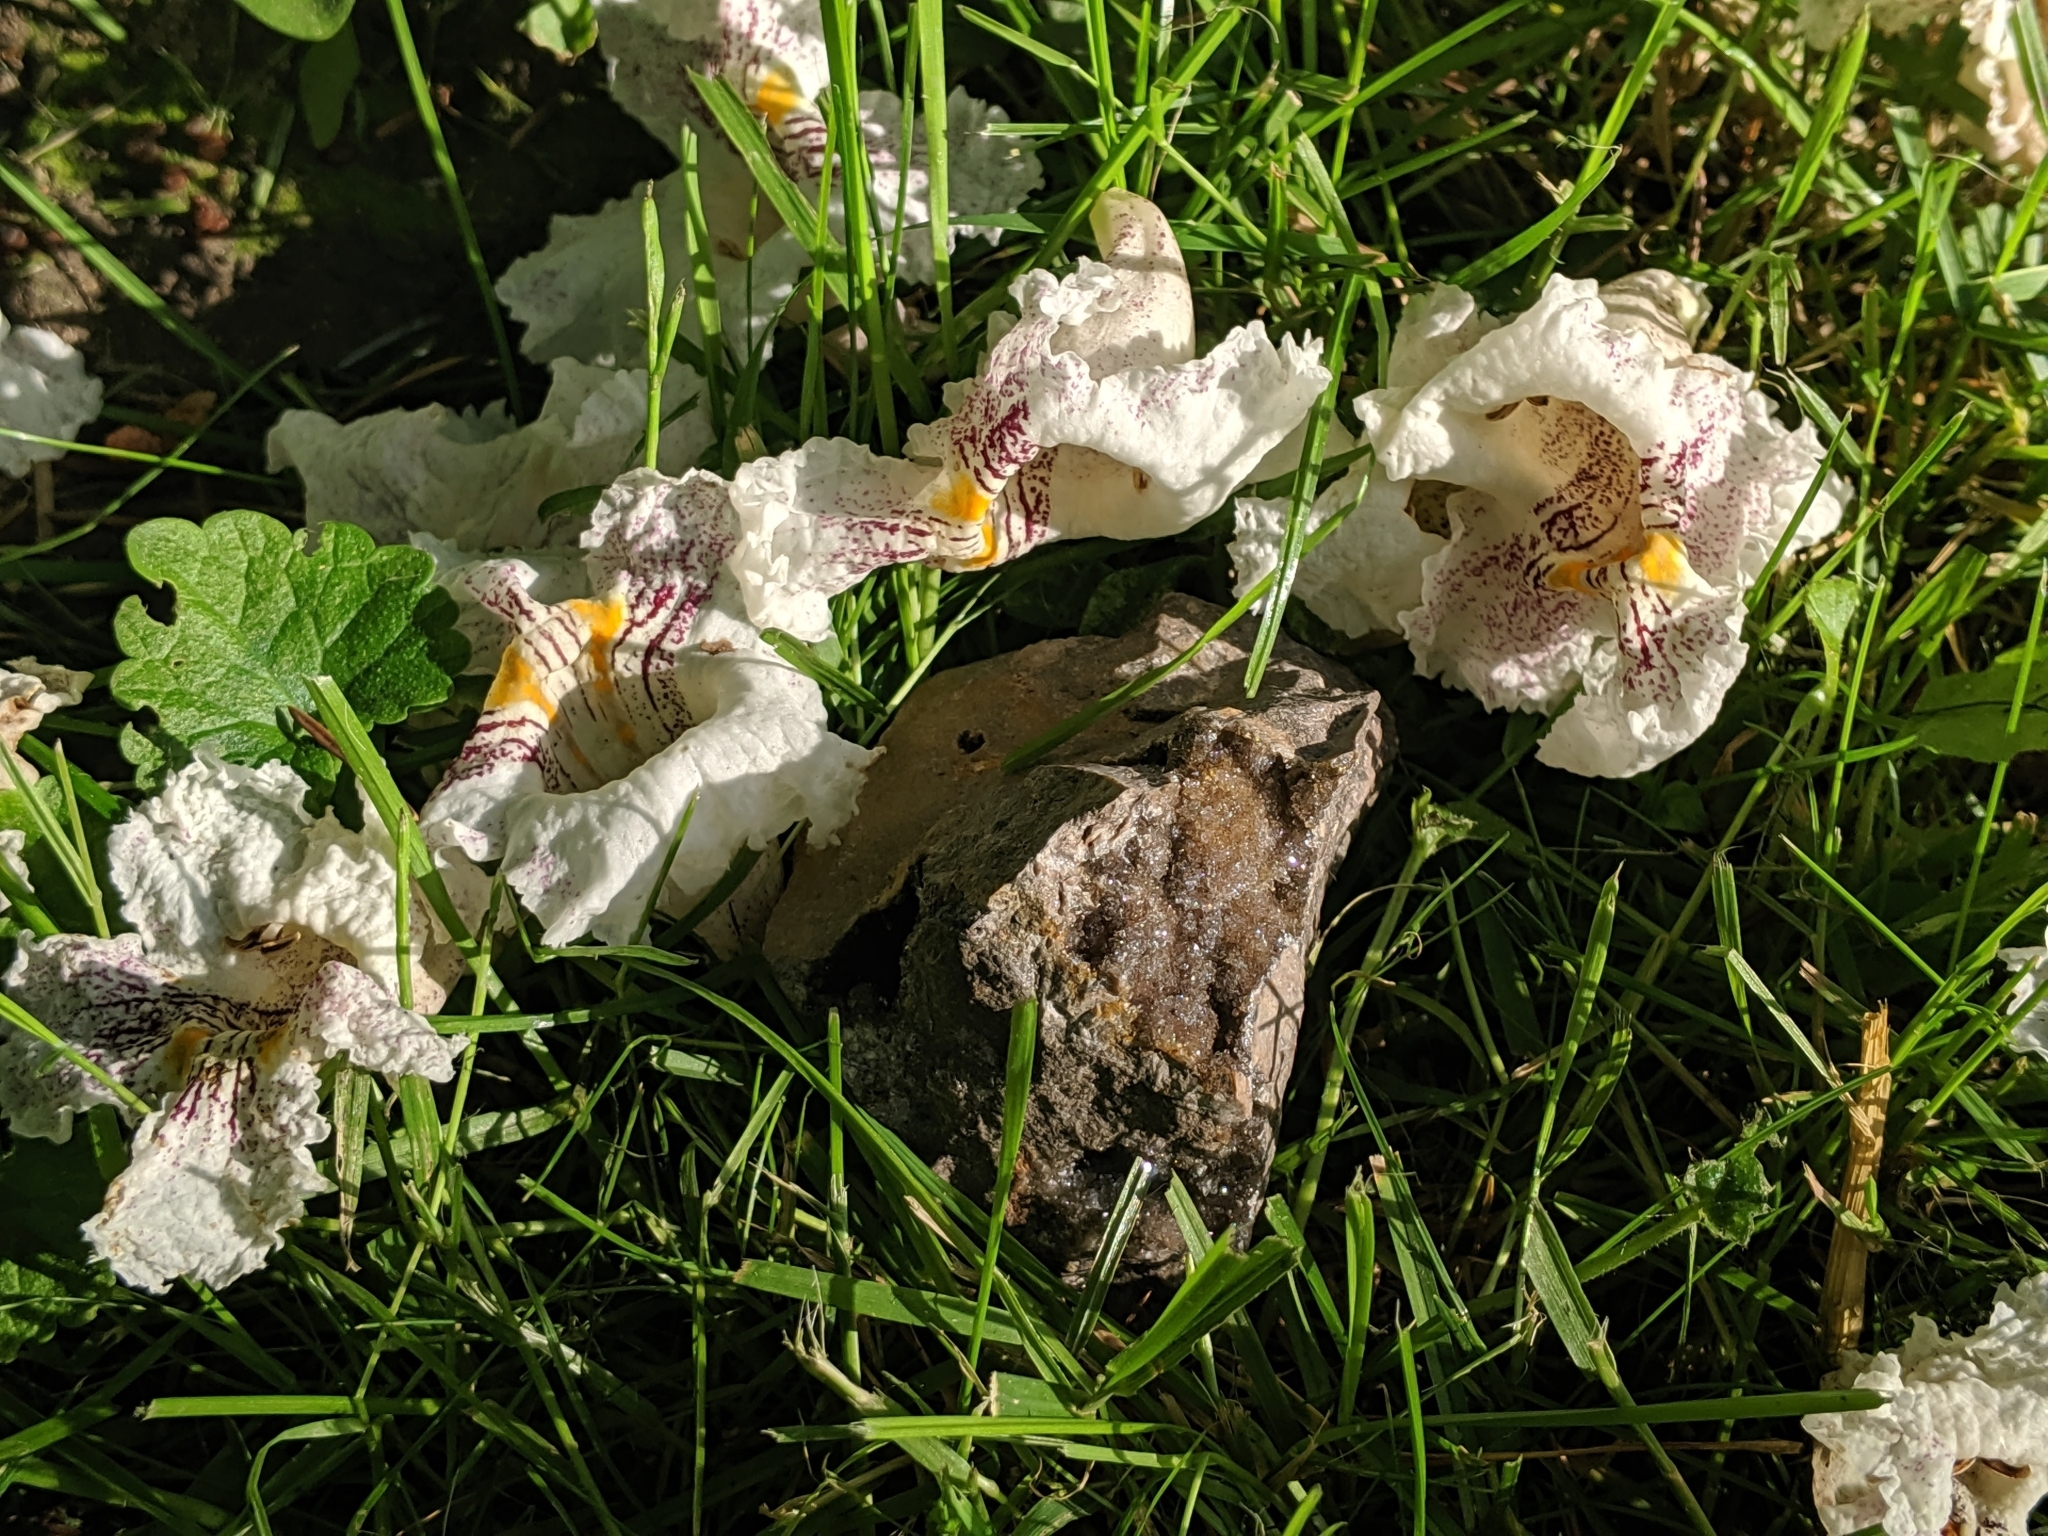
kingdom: Plantae
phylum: Tracheophyta
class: Magnoliopsida
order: Lamiales
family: Bignoniaceae
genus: Catalpa
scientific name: Catalpa speciosa
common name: Northern catalpa
